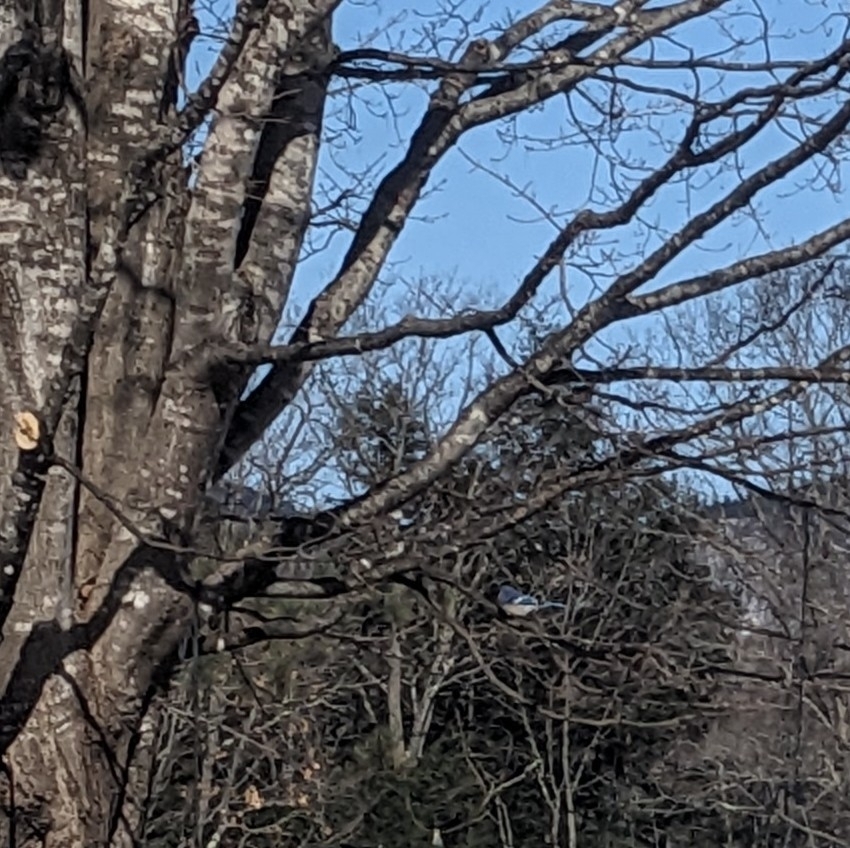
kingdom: Animalia
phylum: Chordata
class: Aves
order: Passeriformes
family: Corvidae
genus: Cyanocitta
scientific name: Cyanocitta cristata
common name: Blue jay
